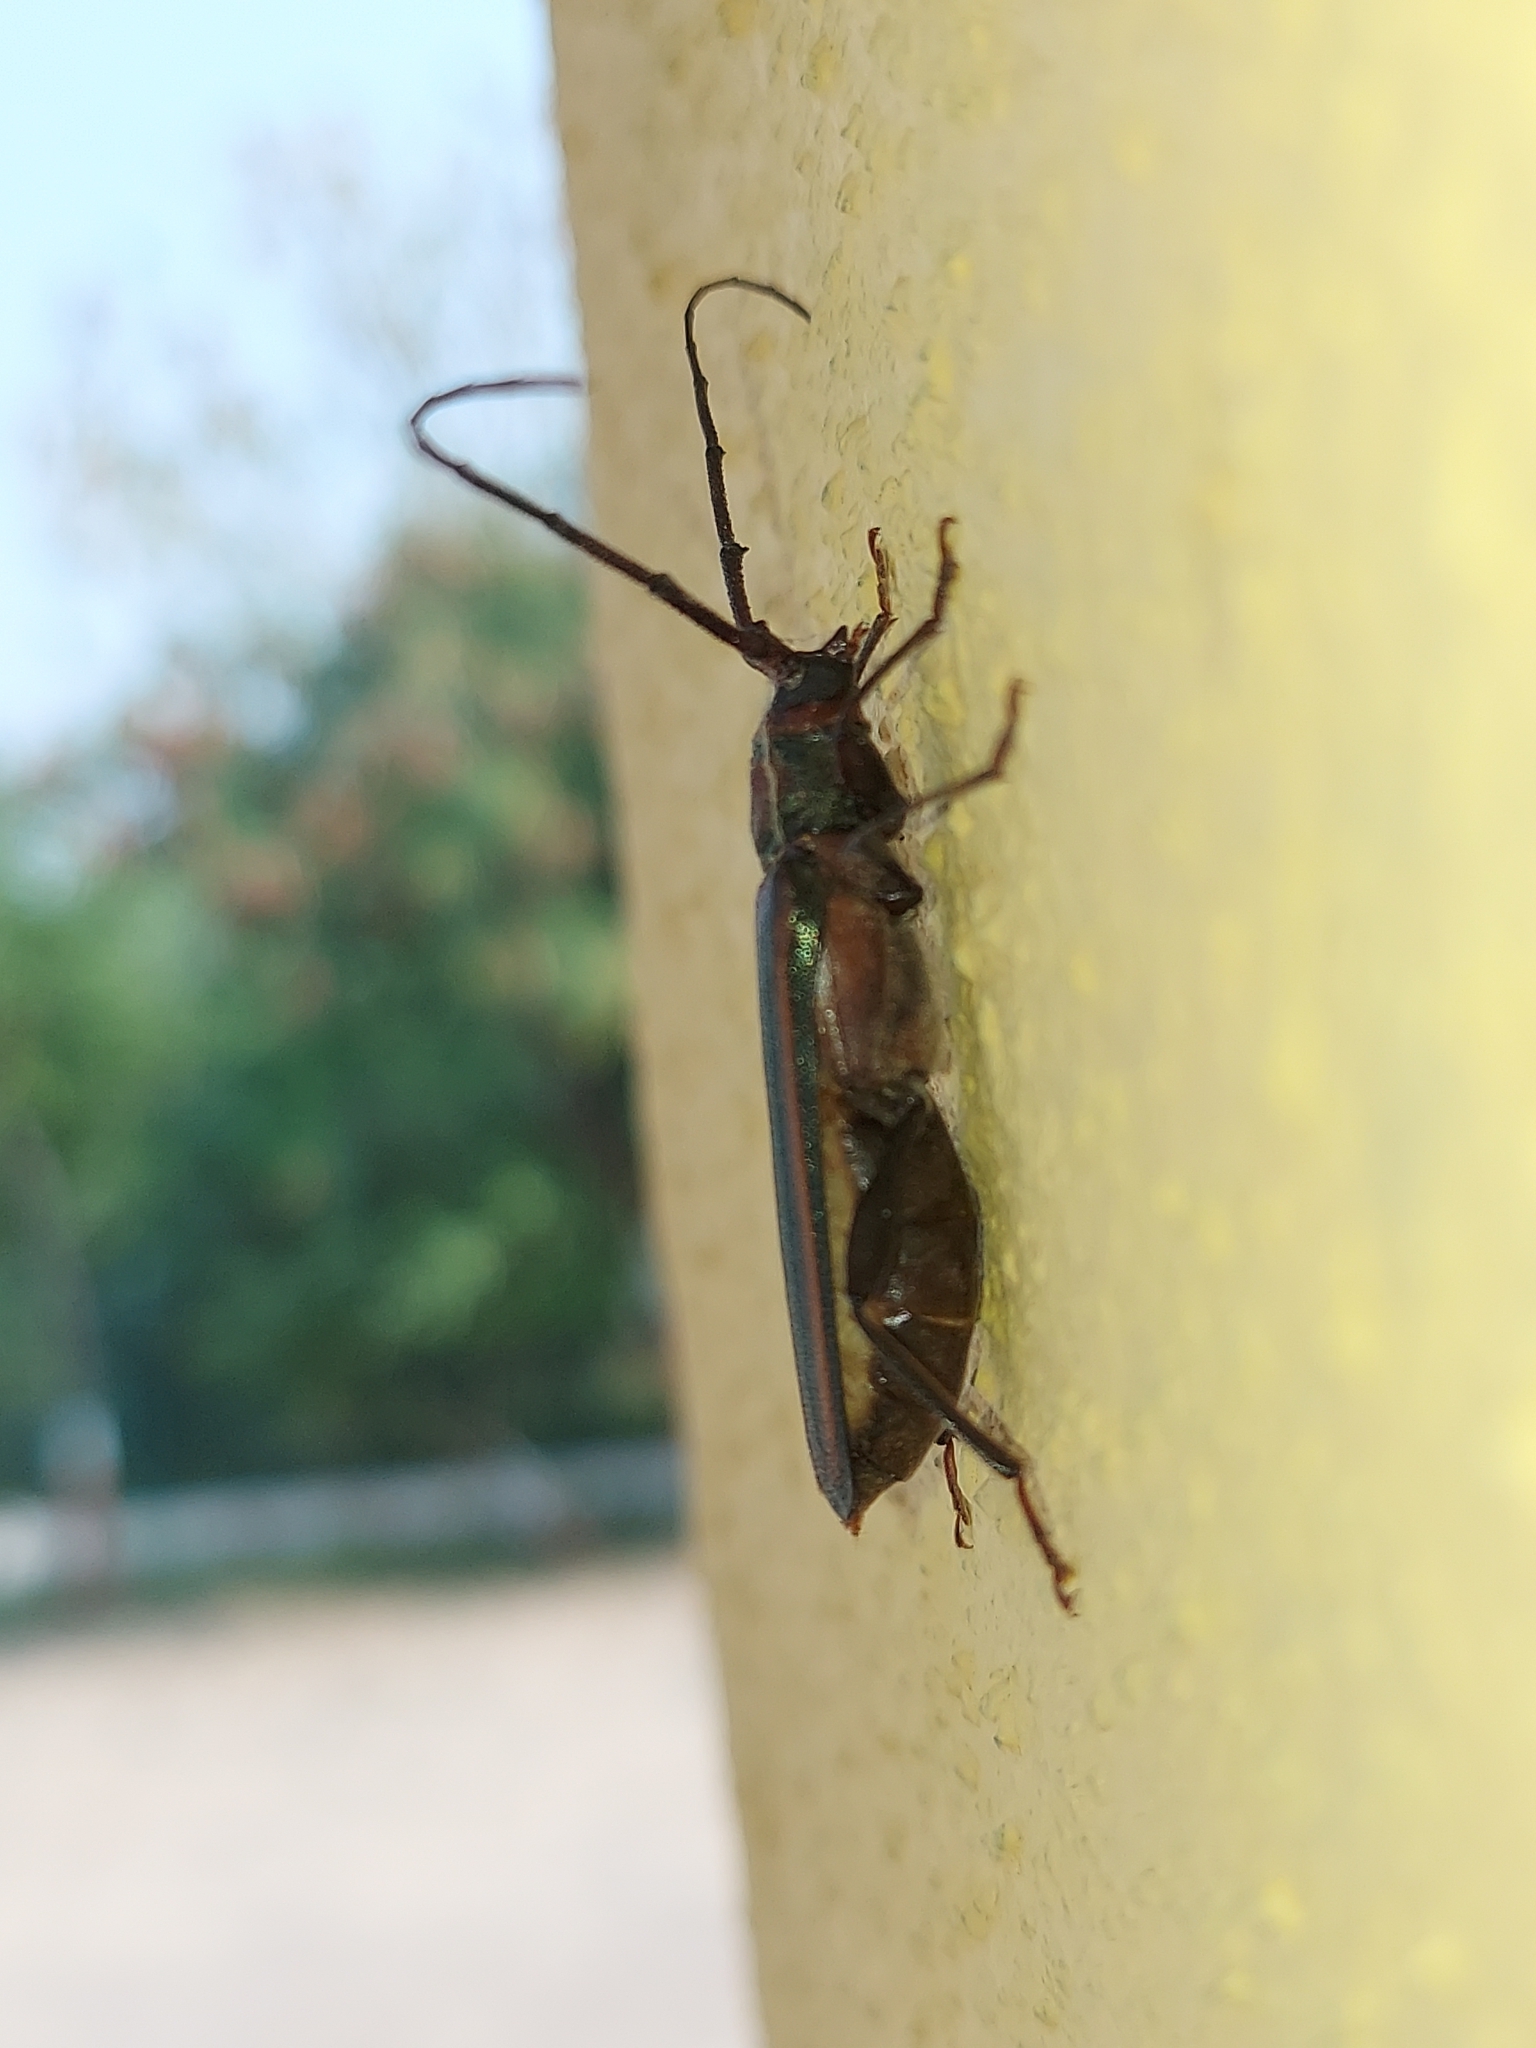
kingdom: Animalia
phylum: Arthropoda
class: Insecta
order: Coleoptera
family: Cerambycidae
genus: Xystrocera
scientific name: Xystrocera globosa
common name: Peach-tree longhorn
